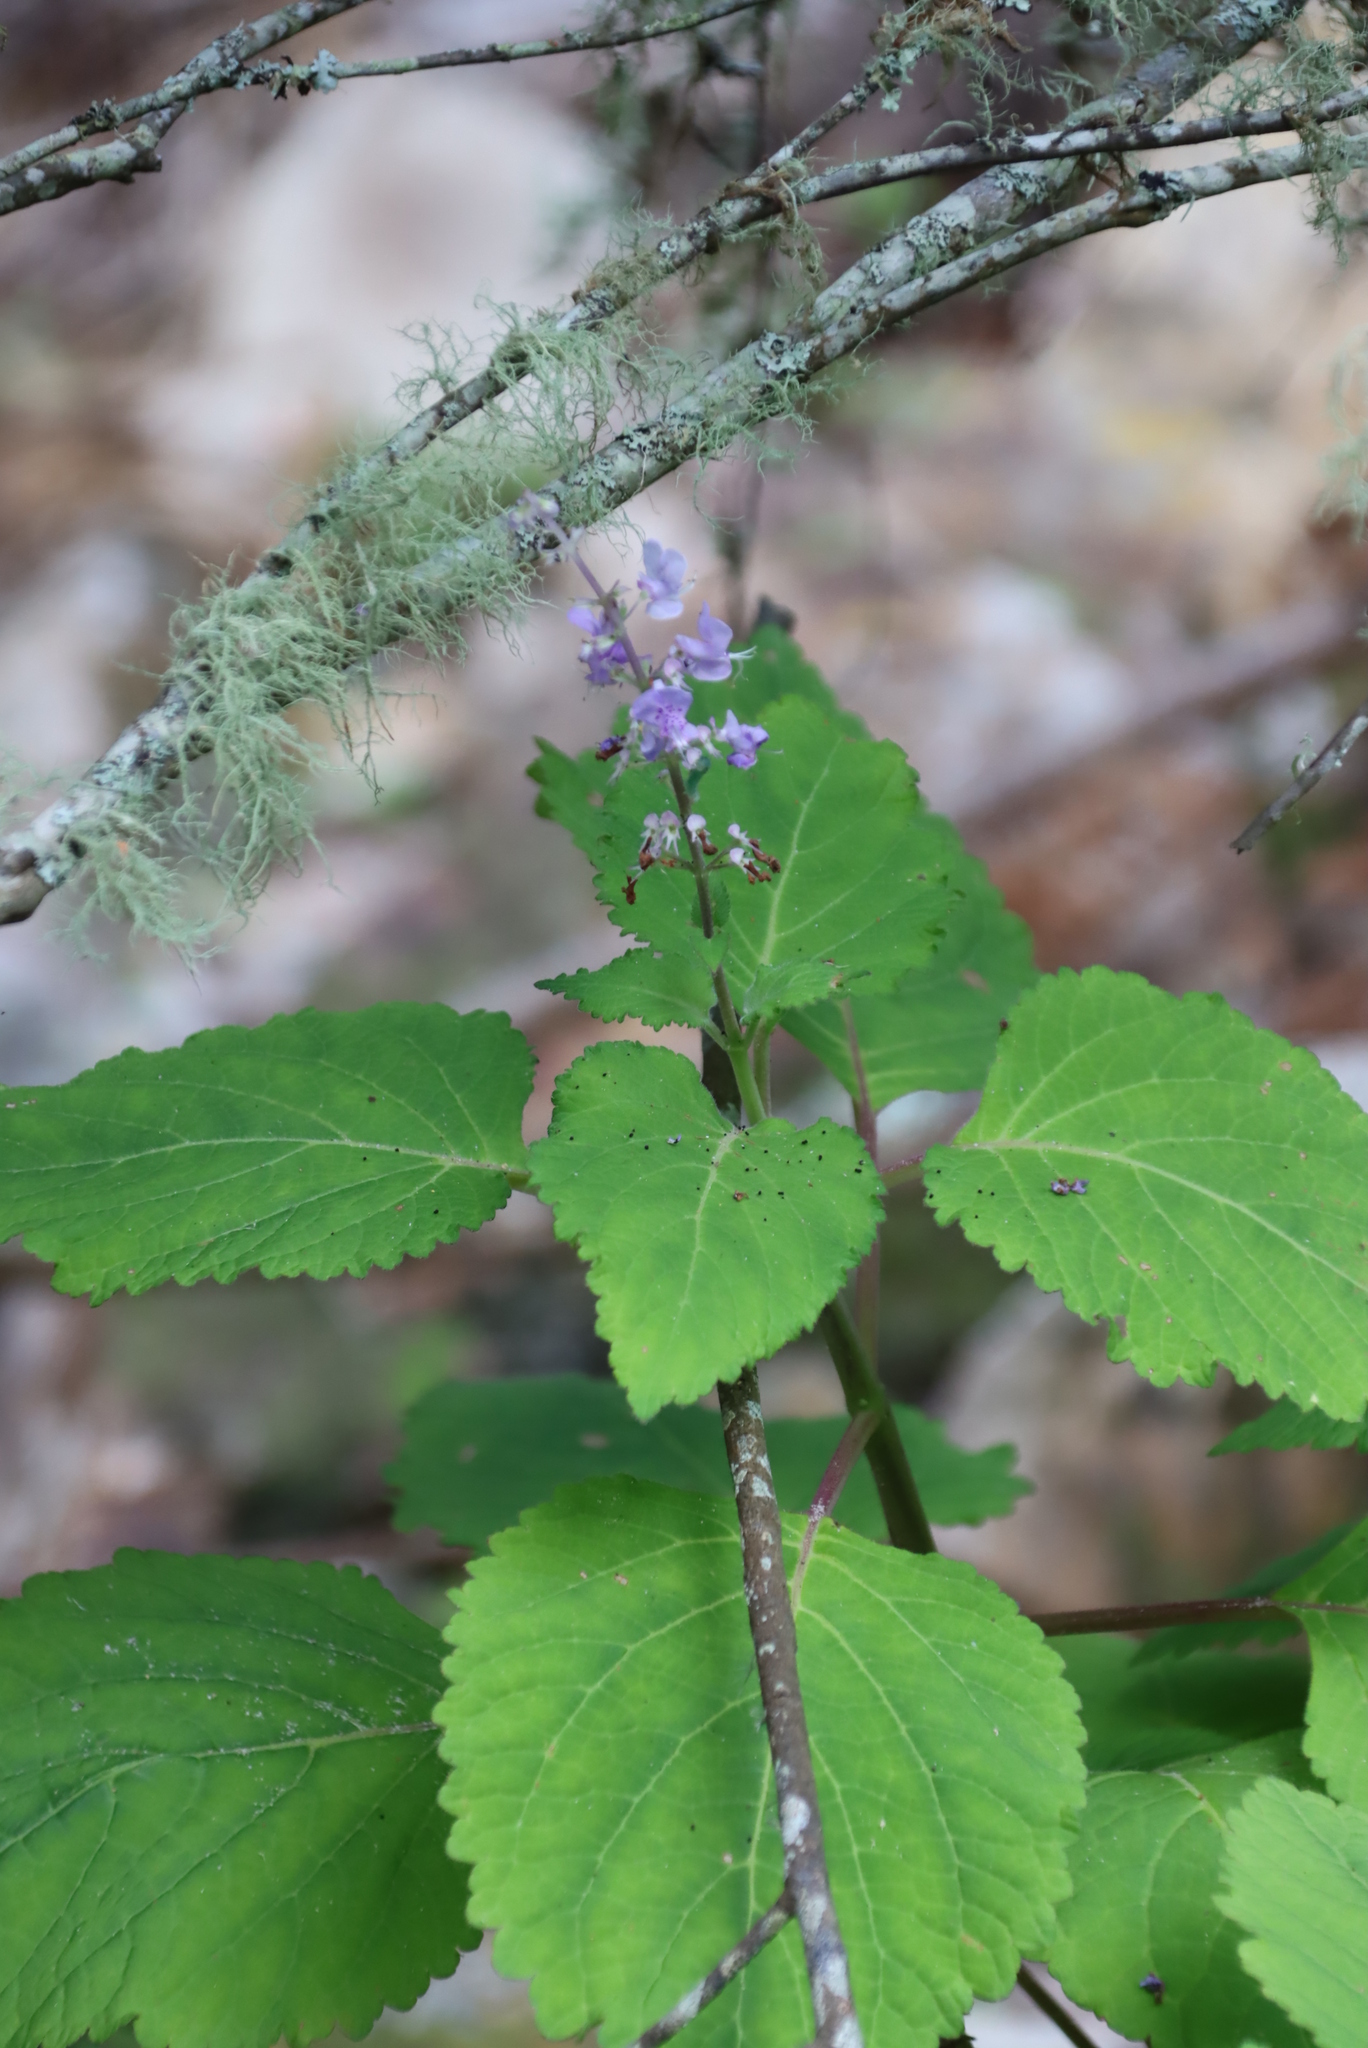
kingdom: Plantae
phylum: Tracheophyta
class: Magnoliopsida
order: Lamiales
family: Lamiaceae
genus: Plectranthus
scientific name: Plectranthus fruticosus
